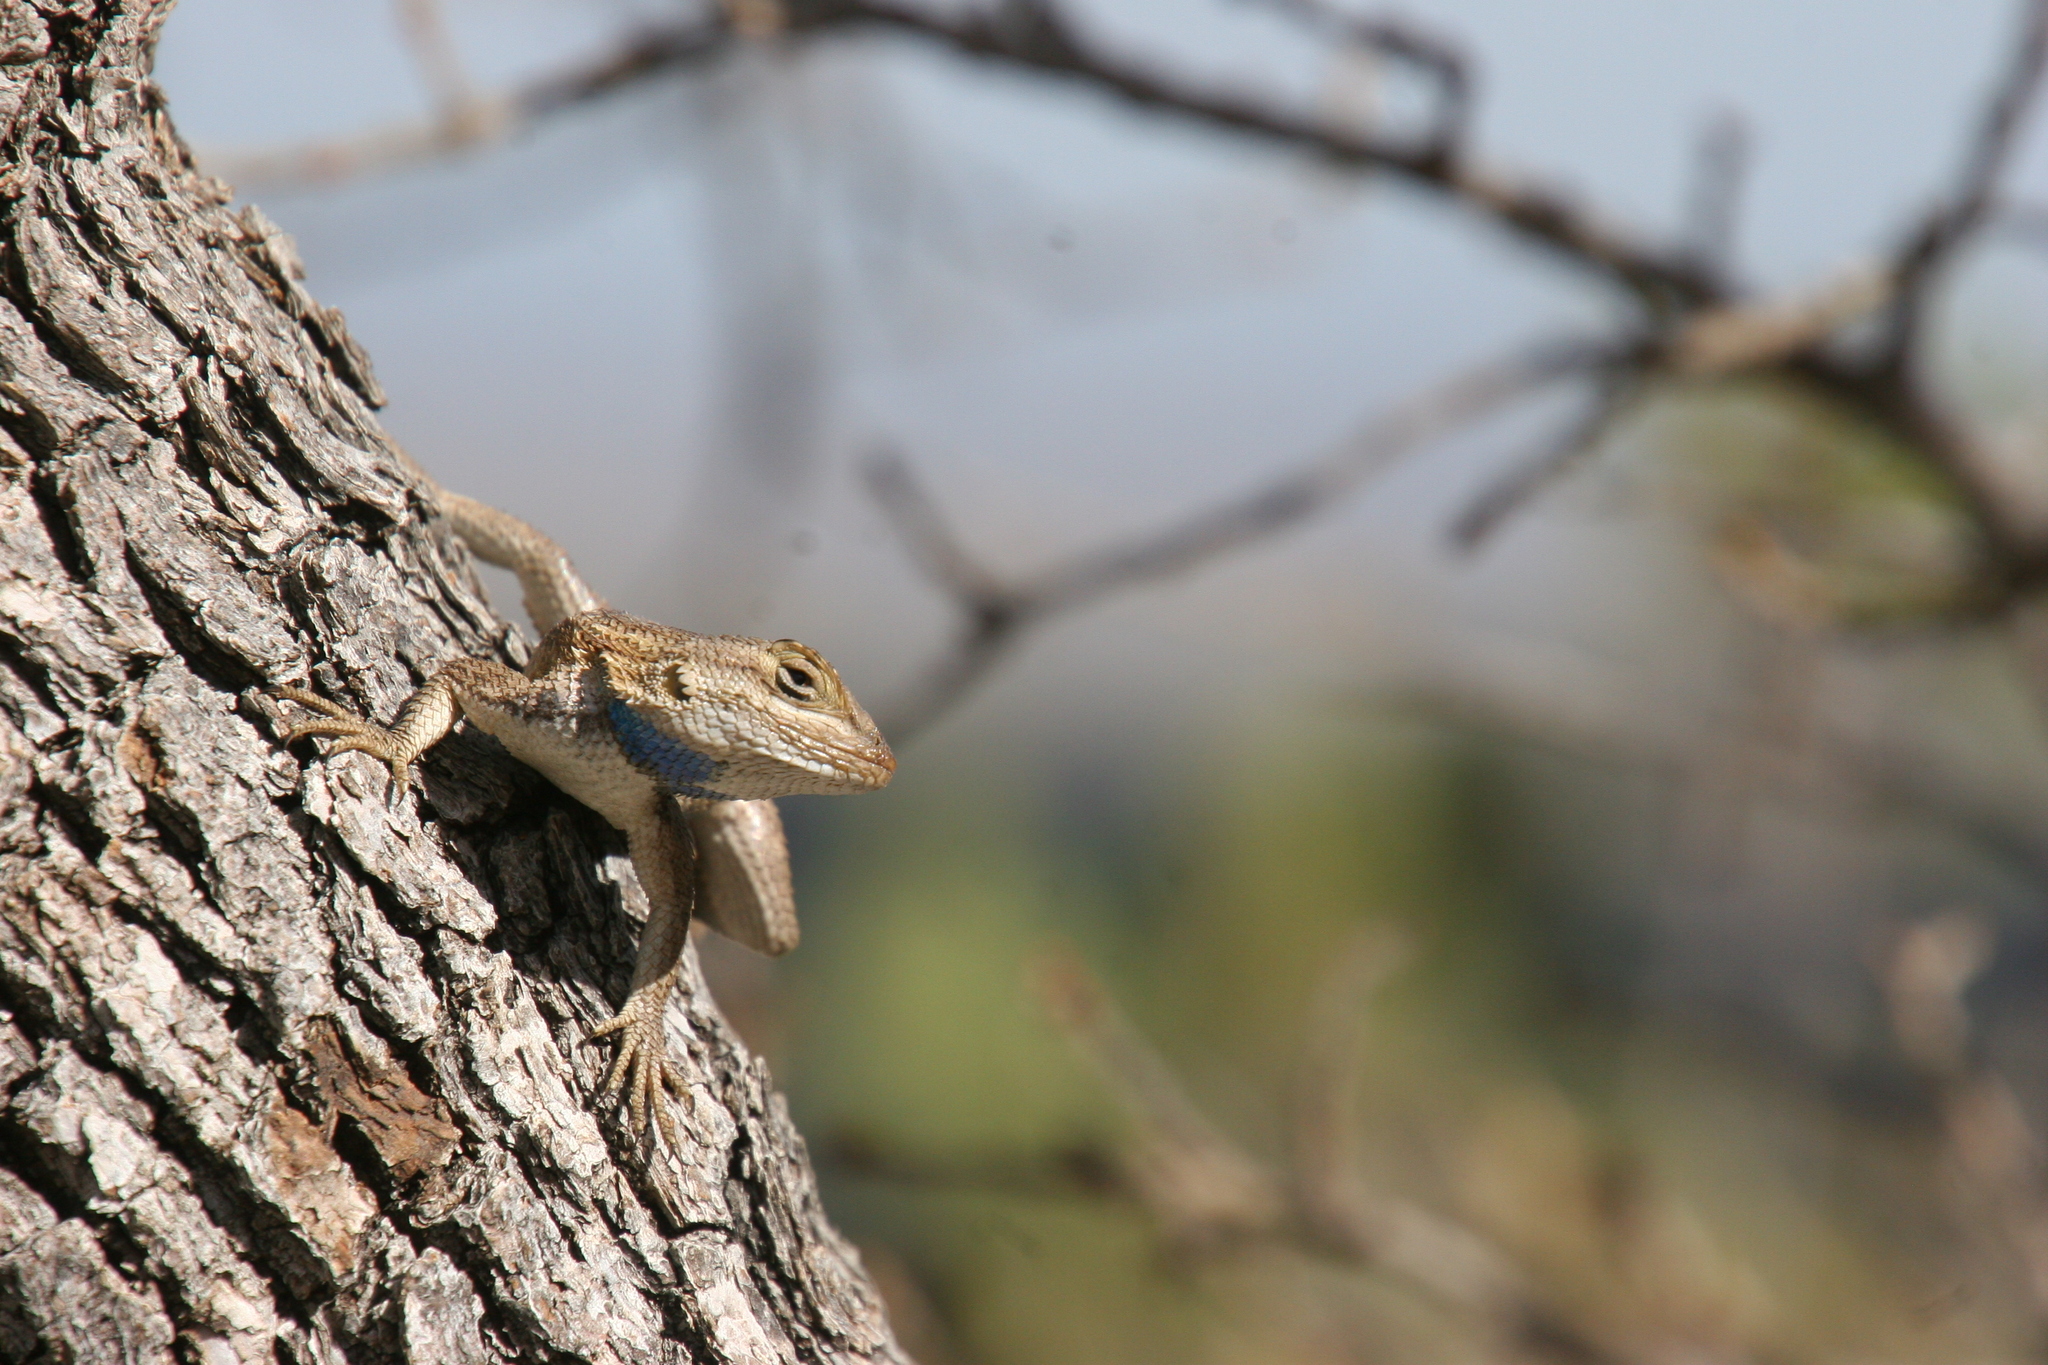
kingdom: Animalia
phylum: Chordata
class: Squamata
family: Phrynosomatidae
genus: Sceloporus
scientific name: Sceloporus cowlesi
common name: White sands prairie lizard
